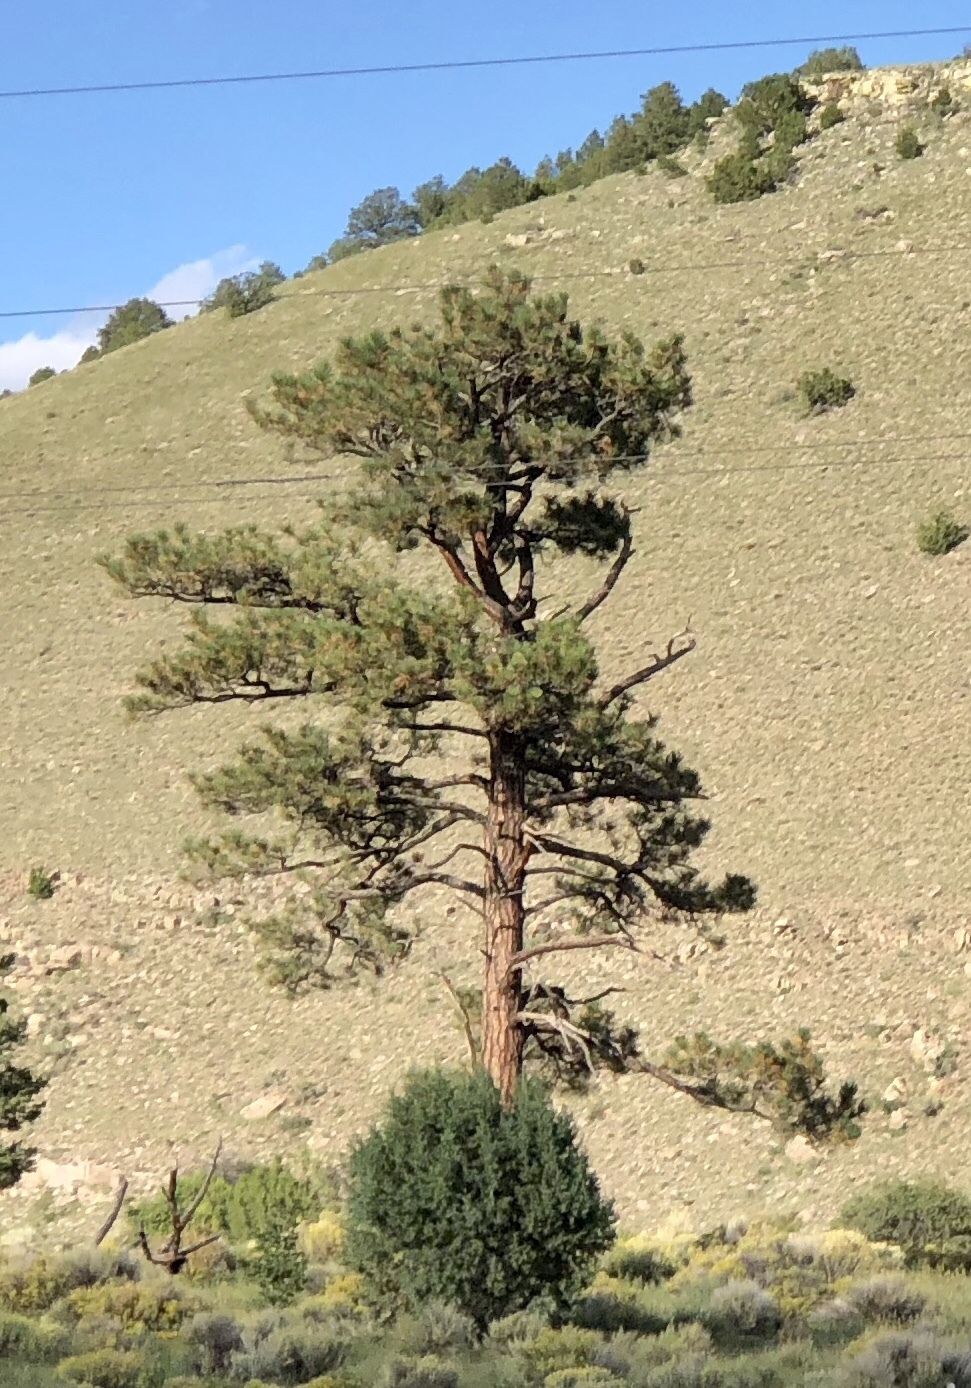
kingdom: Plantae
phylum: Tracheophyta
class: Pinopsida
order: Pinales
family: Pinaceae
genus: Pinus
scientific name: Pinus ponderosa
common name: Western yellow-pine
